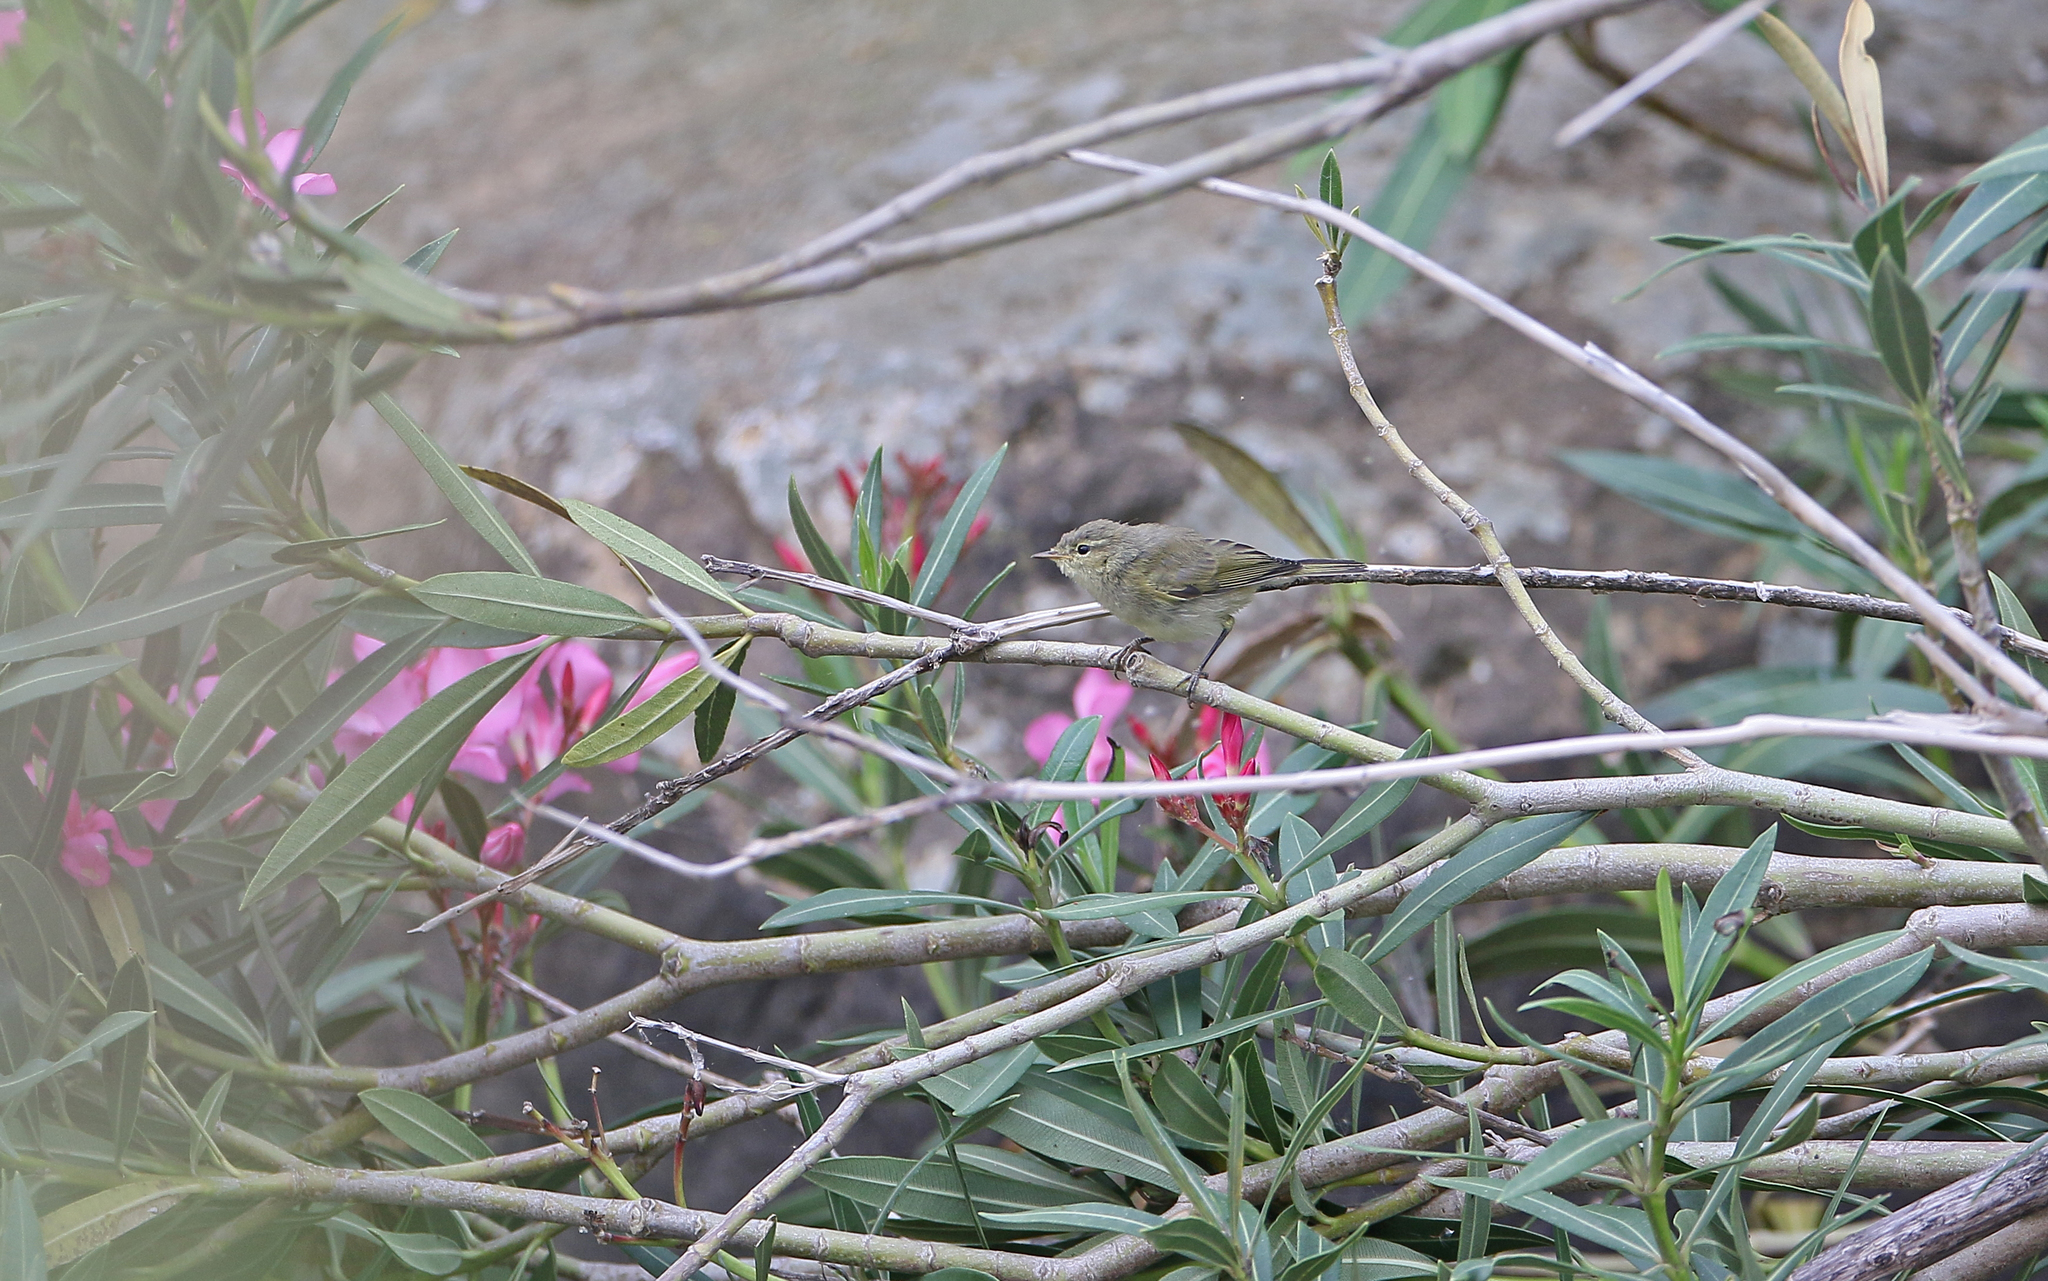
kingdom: Animalia
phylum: Chordata
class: Aves
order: Passeriformes
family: Phylloscopidae
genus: Phylloscopus
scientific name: Phylloscopus ibericus
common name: Iberian chiffchaff
